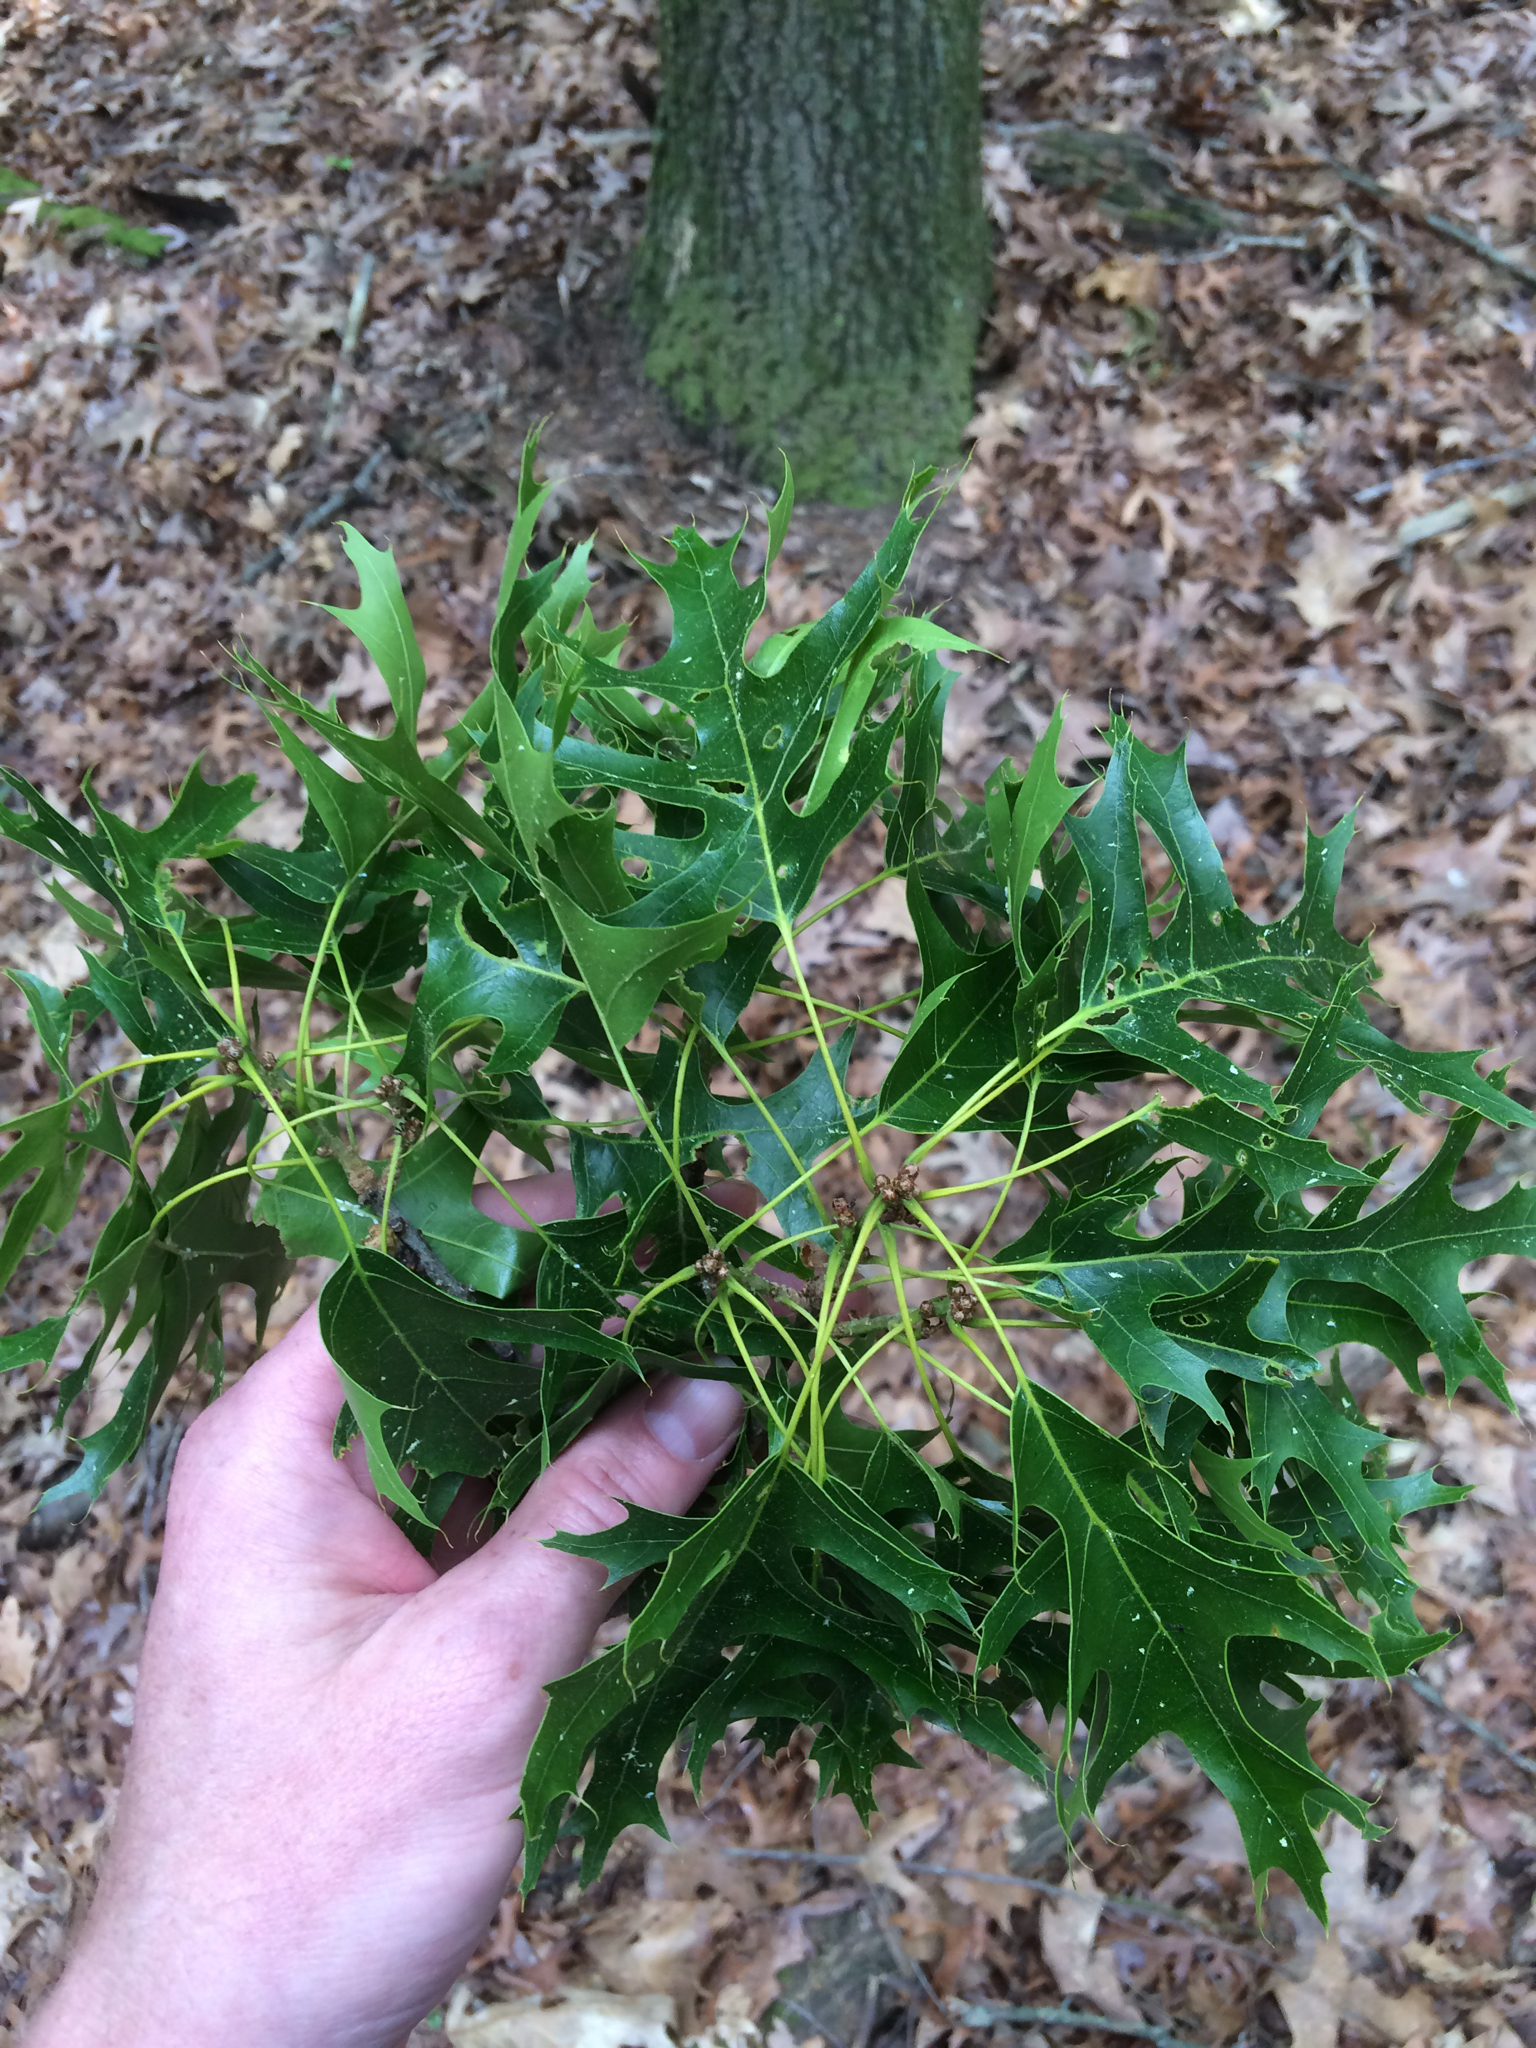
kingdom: Plantae
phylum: Tracheophyta
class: Magnoliopsida
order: Fagales
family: Fagaceae
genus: Quercus
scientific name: Quercus coccinea
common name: Scarlet oak
